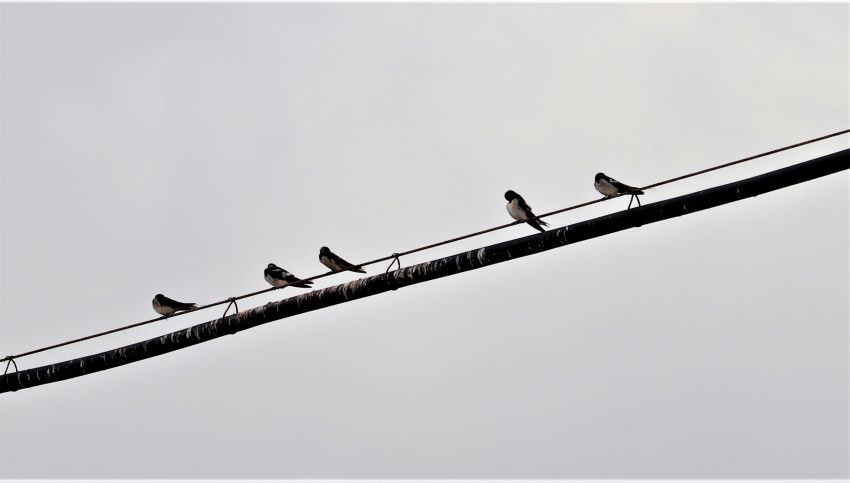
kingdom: Animalia
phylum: Chordata
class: Aves
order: Passeriformes
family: Hirundinidae
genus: Hirundo
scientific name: Hirundo rustica
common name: Barn swallow
